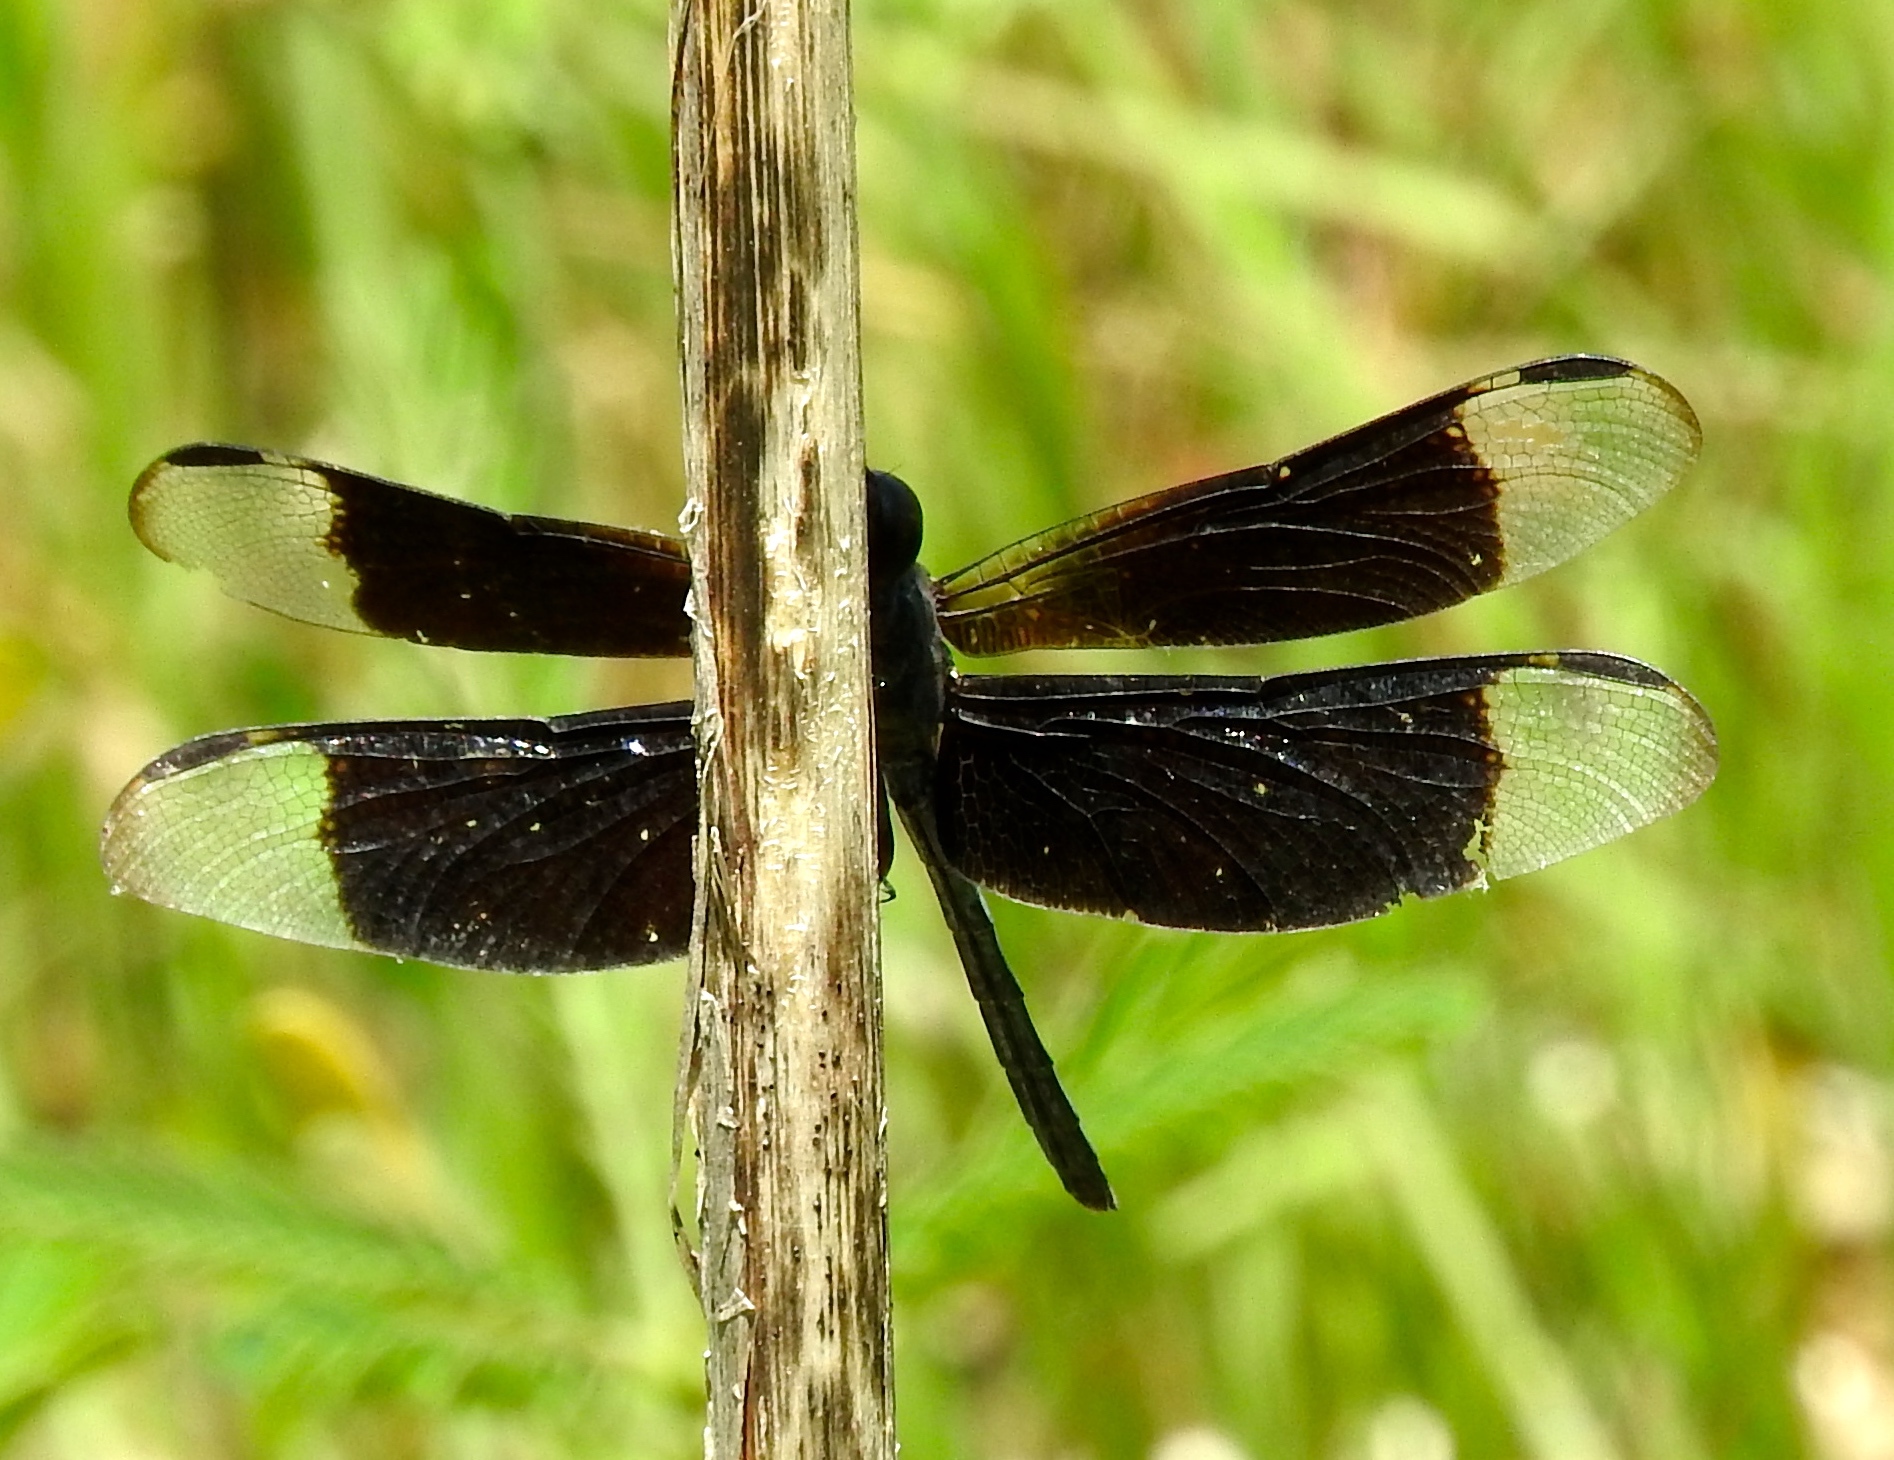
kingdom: Animalia
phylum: Arthropoda
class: Insecta
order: Odonata
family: Libellulidae
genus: Erythrodiplax
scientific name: Erythrodiplax funerea
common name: Black-winged dragonlet
